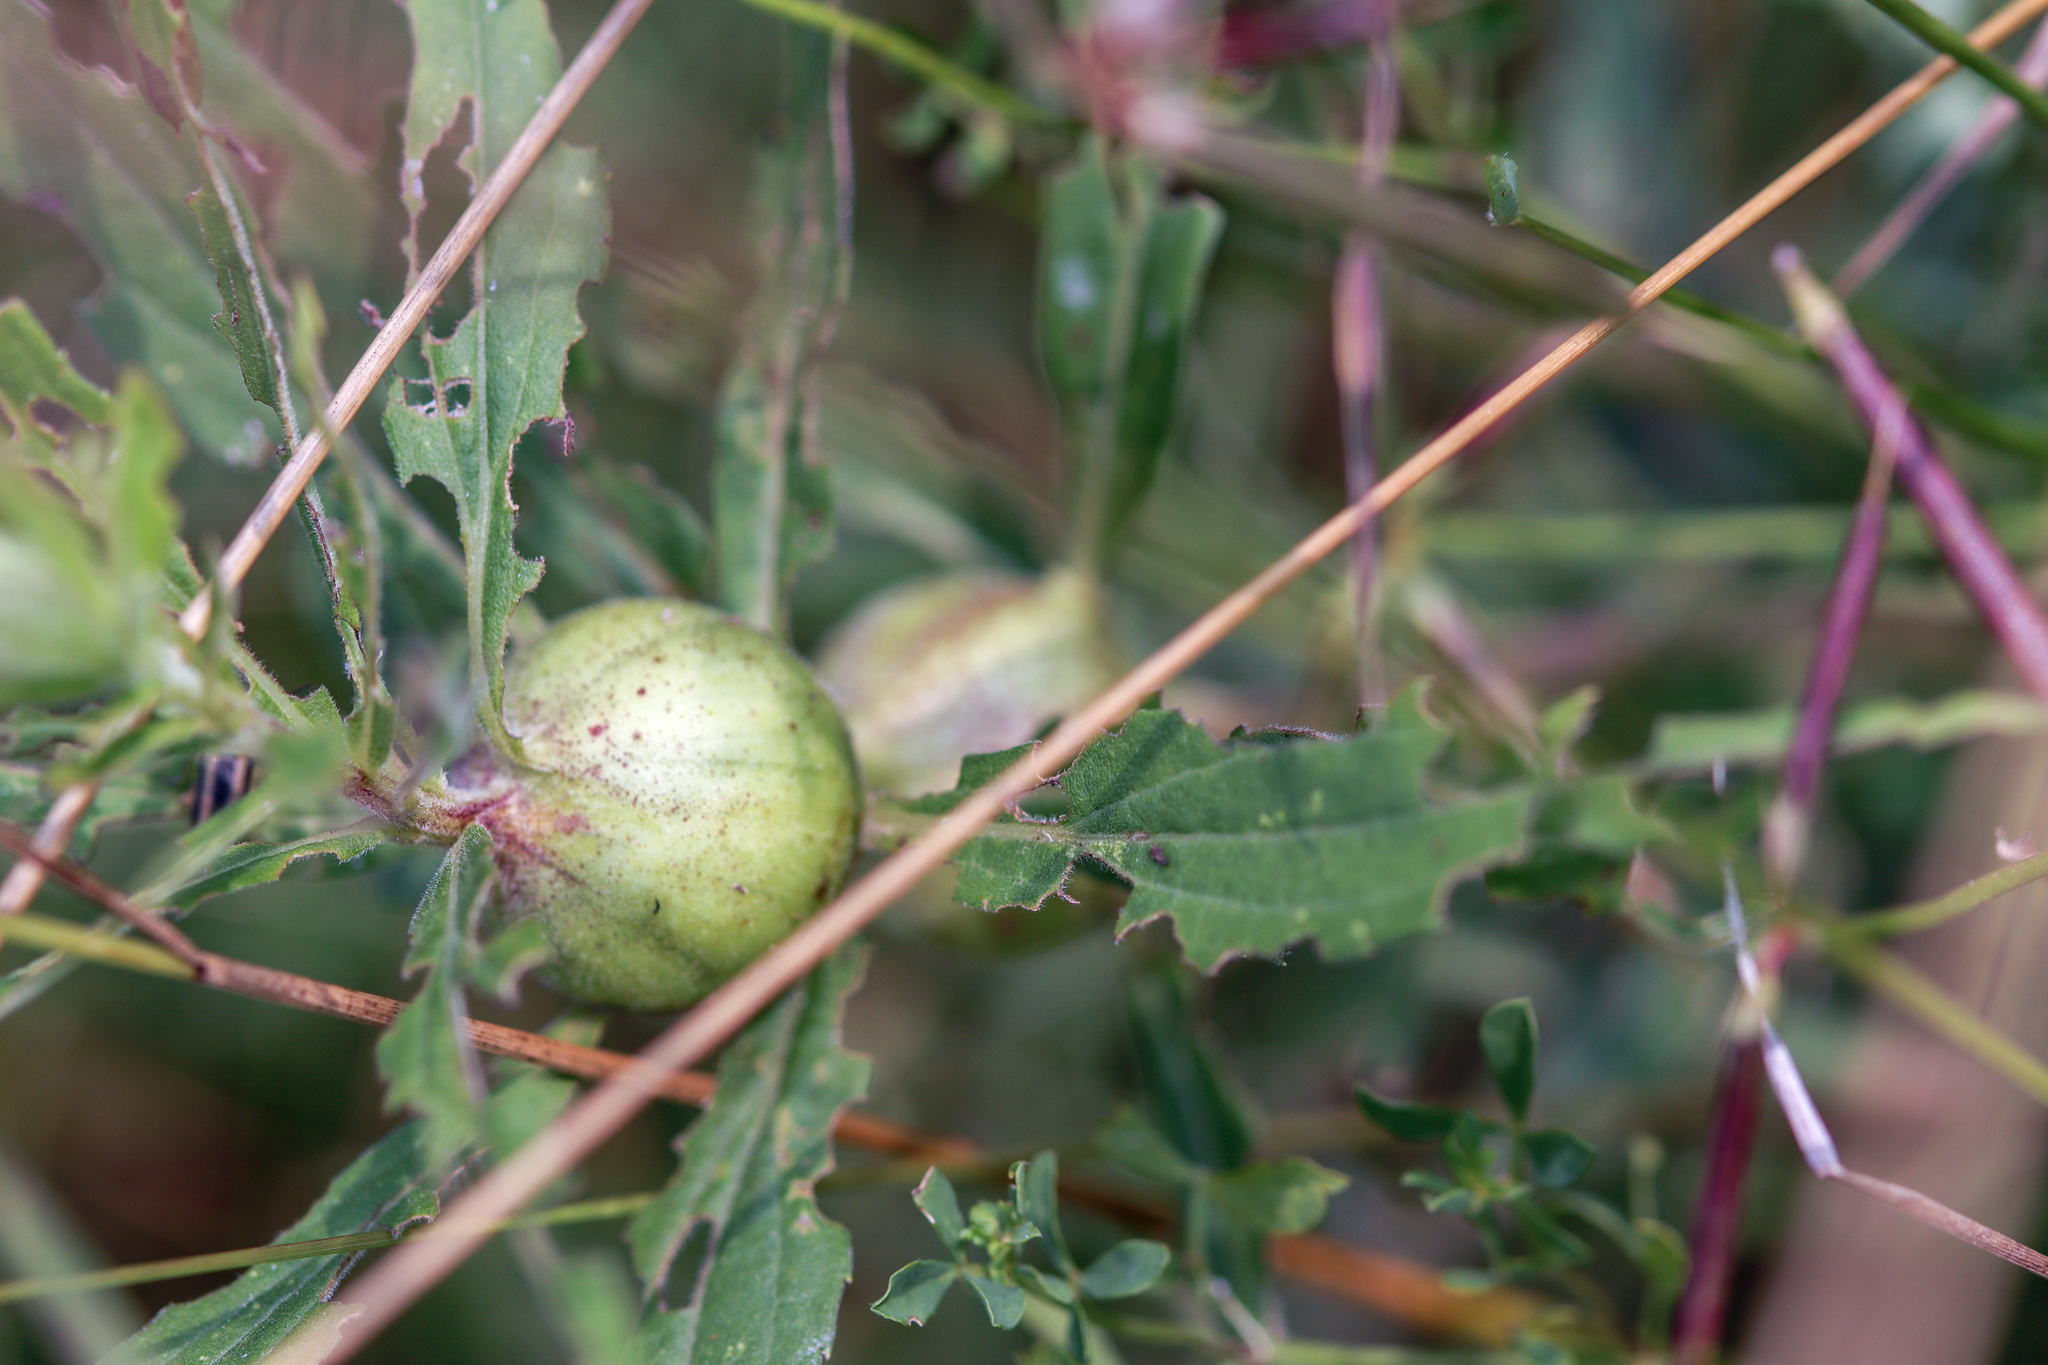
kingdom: Animalia
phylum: Arthropoda
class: Insecta
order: Diptera
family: Tephritidae
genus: Eurosta
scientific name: Eurosta solidaginis
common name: Goldenrod gall fly
